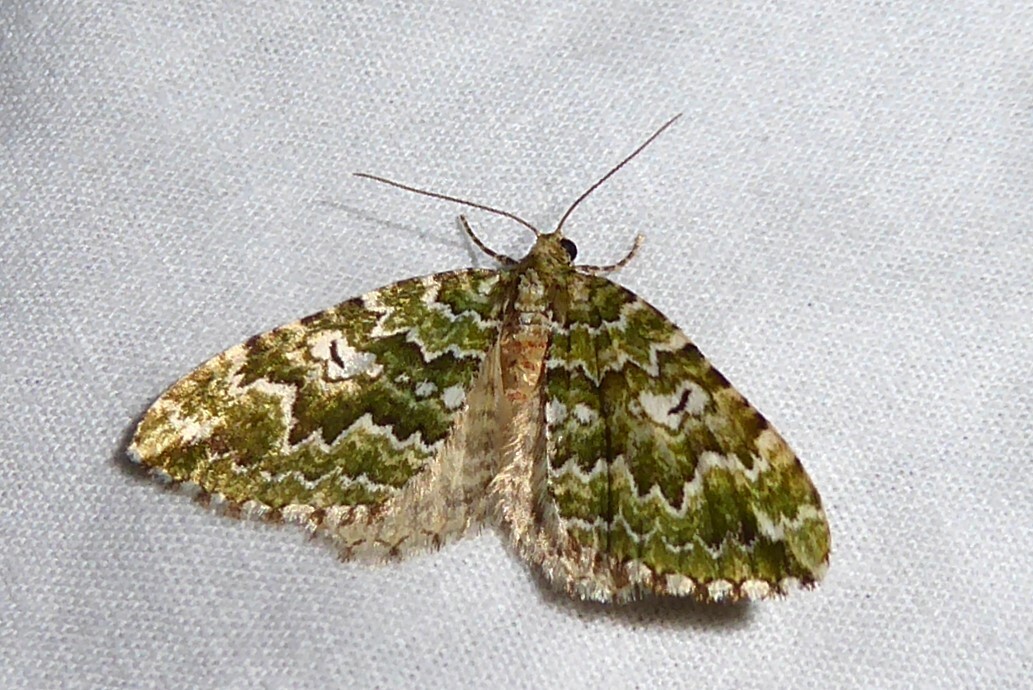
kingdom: Animalia
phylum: Arthropoda
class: Insecta
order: Lepidoptera
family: Geometridae
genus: Asaphodes
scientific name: Asaphodes beata
